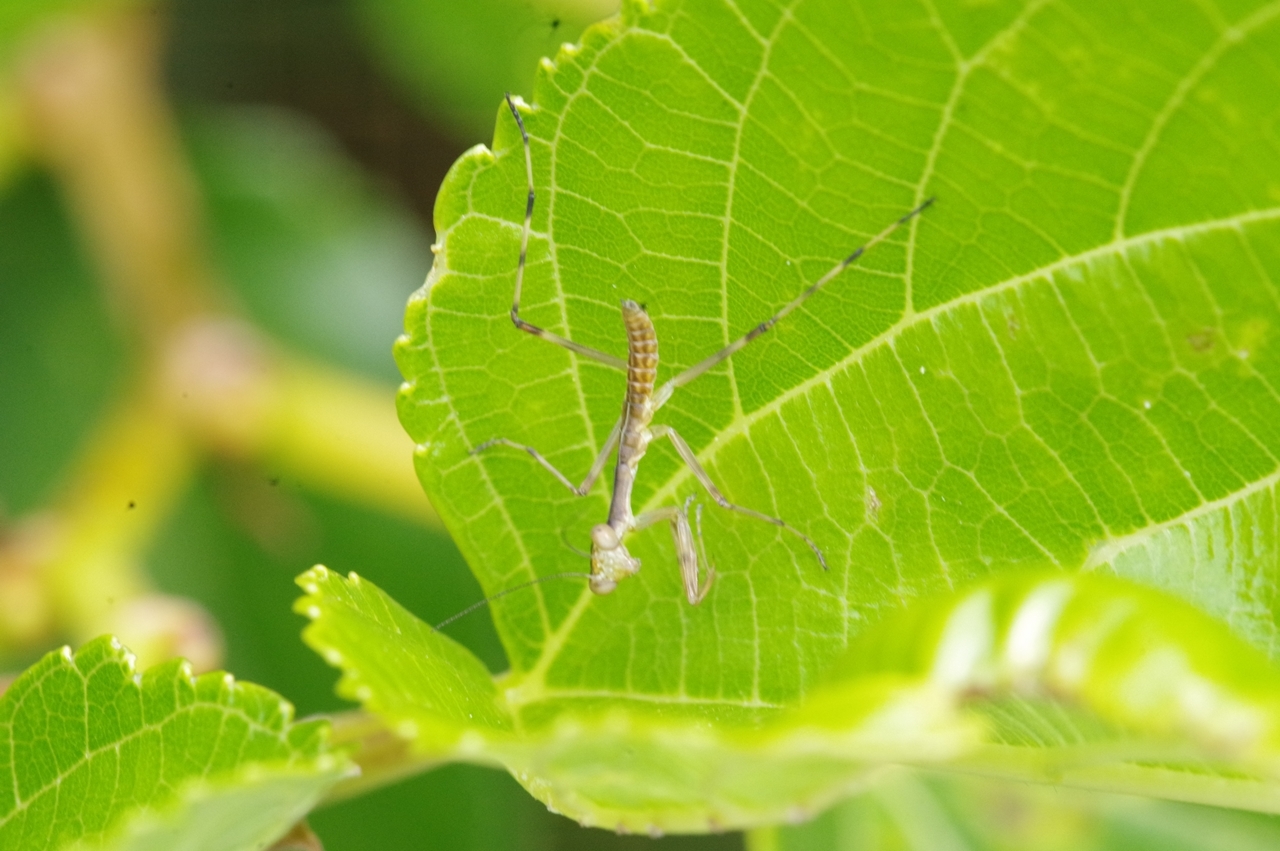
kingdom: Animalia
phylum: Arthropoda
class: Insecta
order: Mantodea
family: Mantidae
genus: Hierodula
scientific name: Hierodula patellifera
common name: Asian mantis
